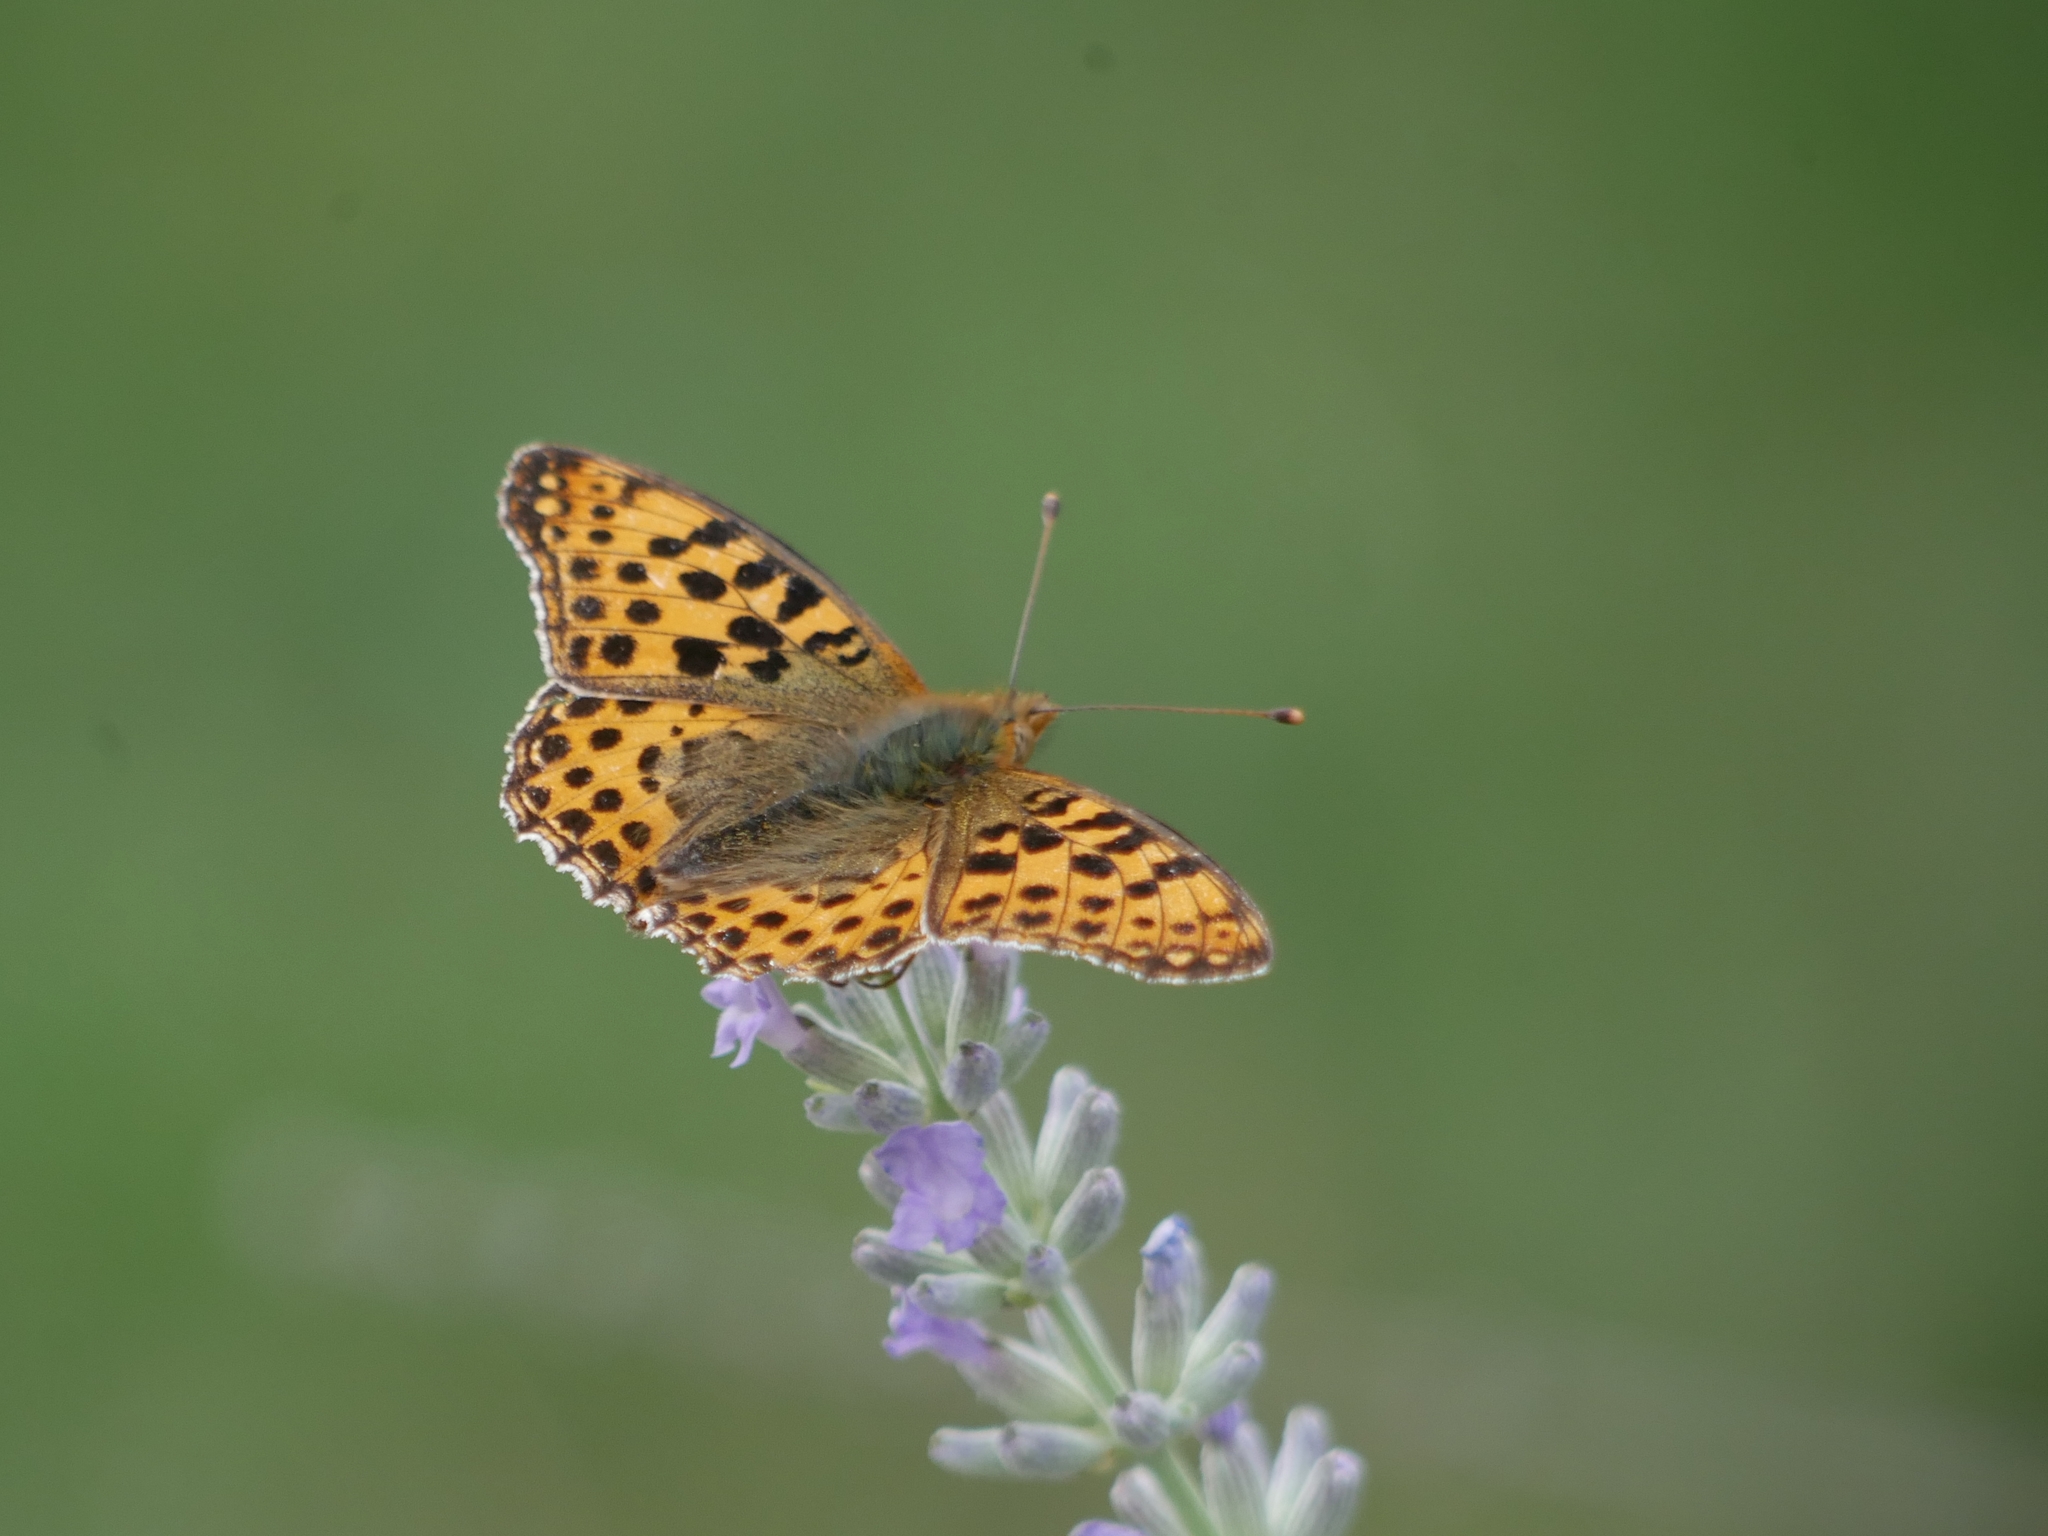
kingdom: Animalia
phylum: Arthropoda
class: Insecta
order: Lepidoptera
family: Nymphalidae
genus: Issoria
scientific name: Issoria lathonia
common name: Queen of spain fritillary
